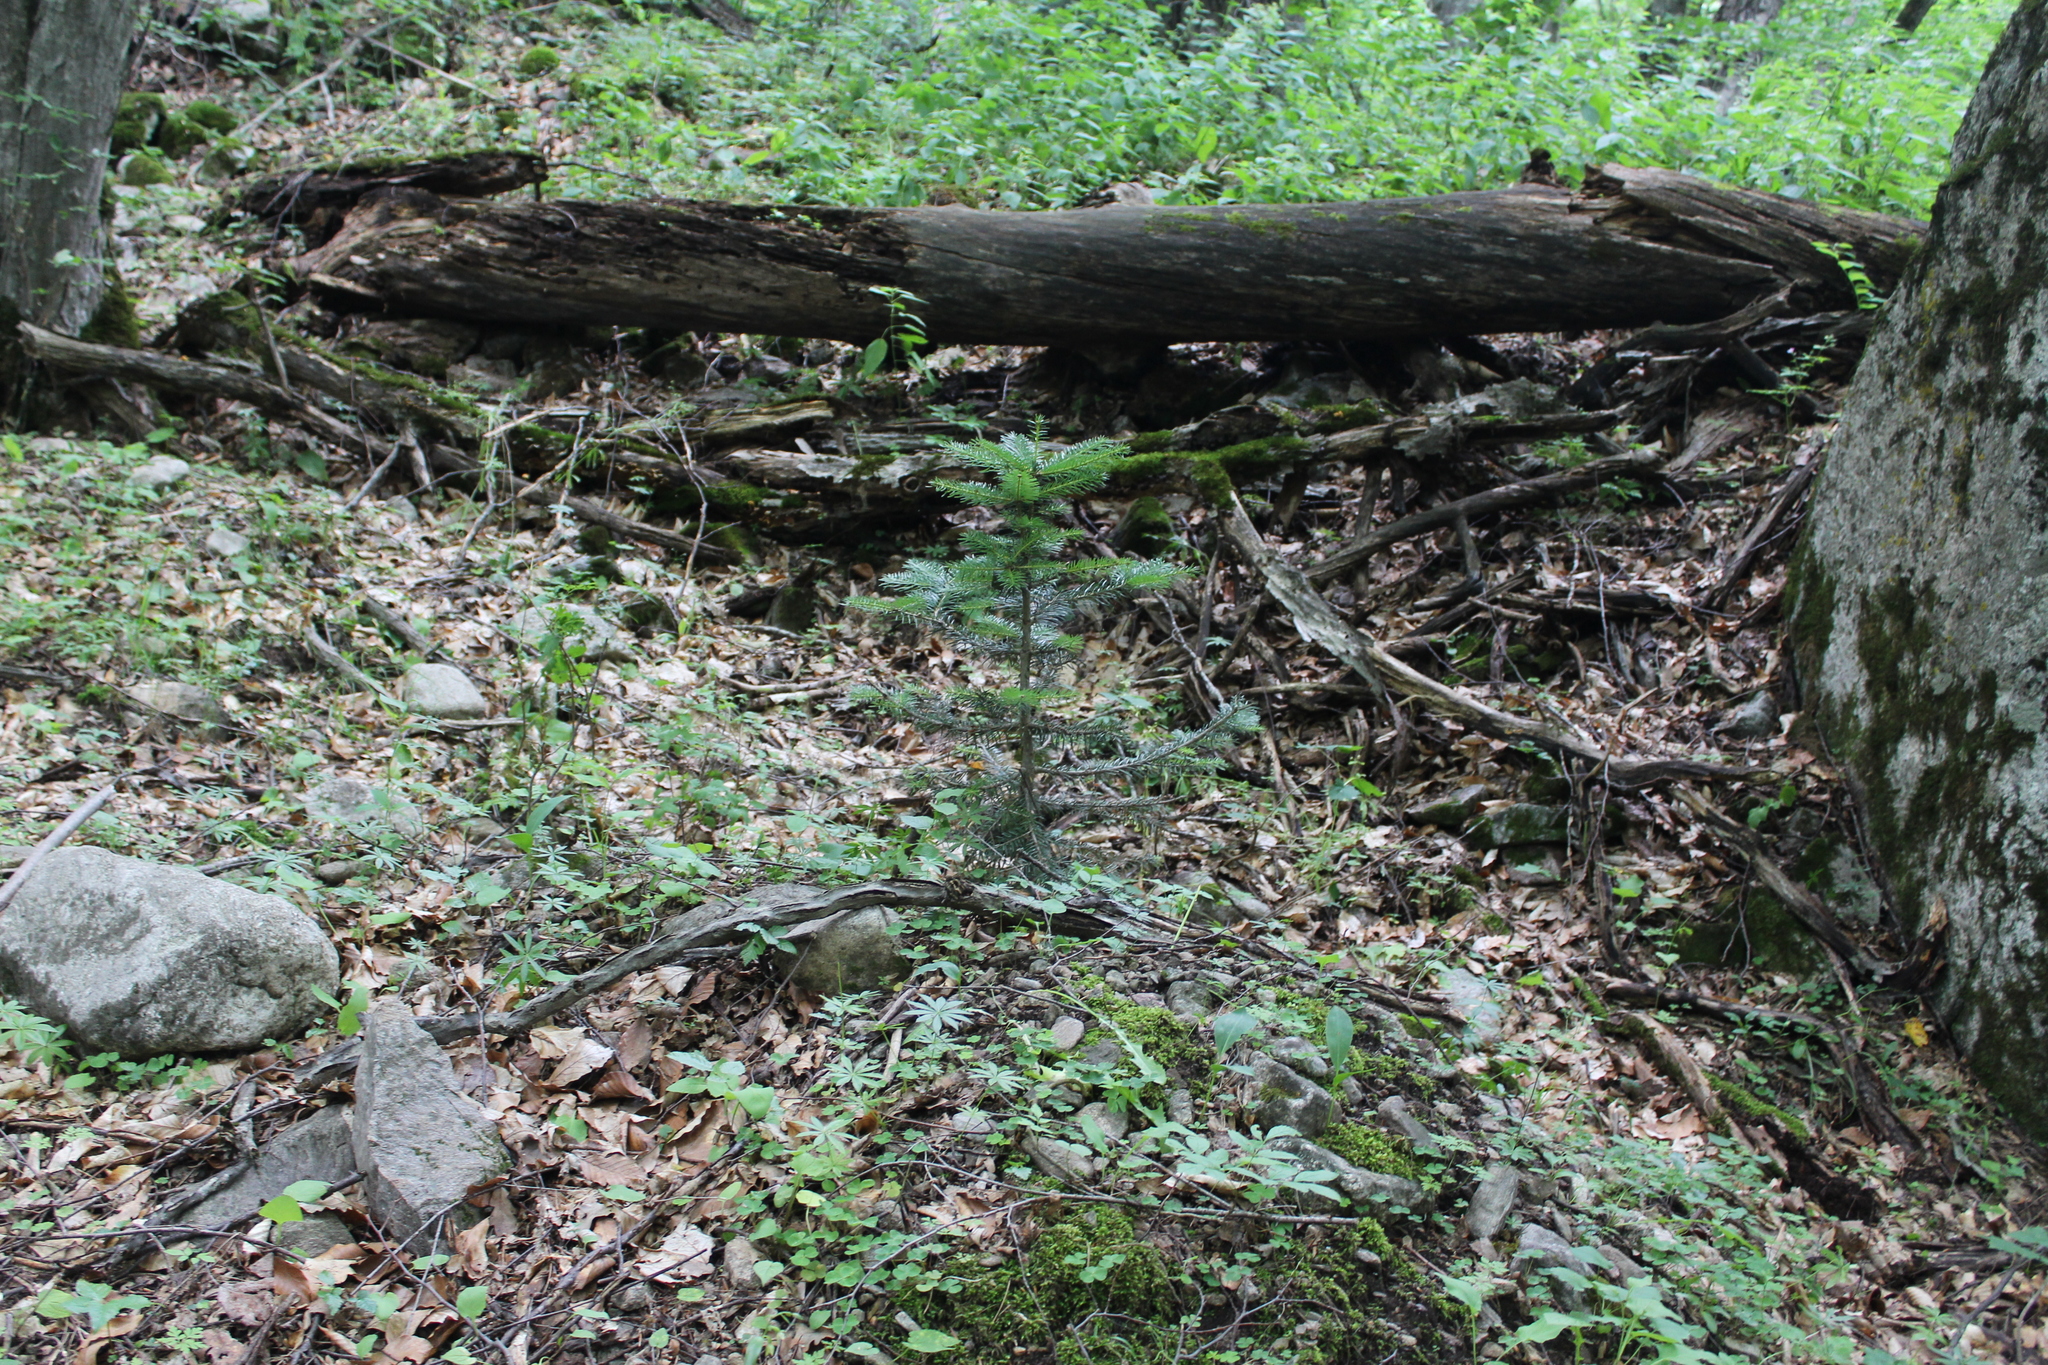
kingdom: Plantae
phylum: Tracheophyta
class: Pinopsida
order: Pinales
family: Pinaceae
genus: Abies
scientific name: Abies nordmanniana
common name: Caucasian fir
